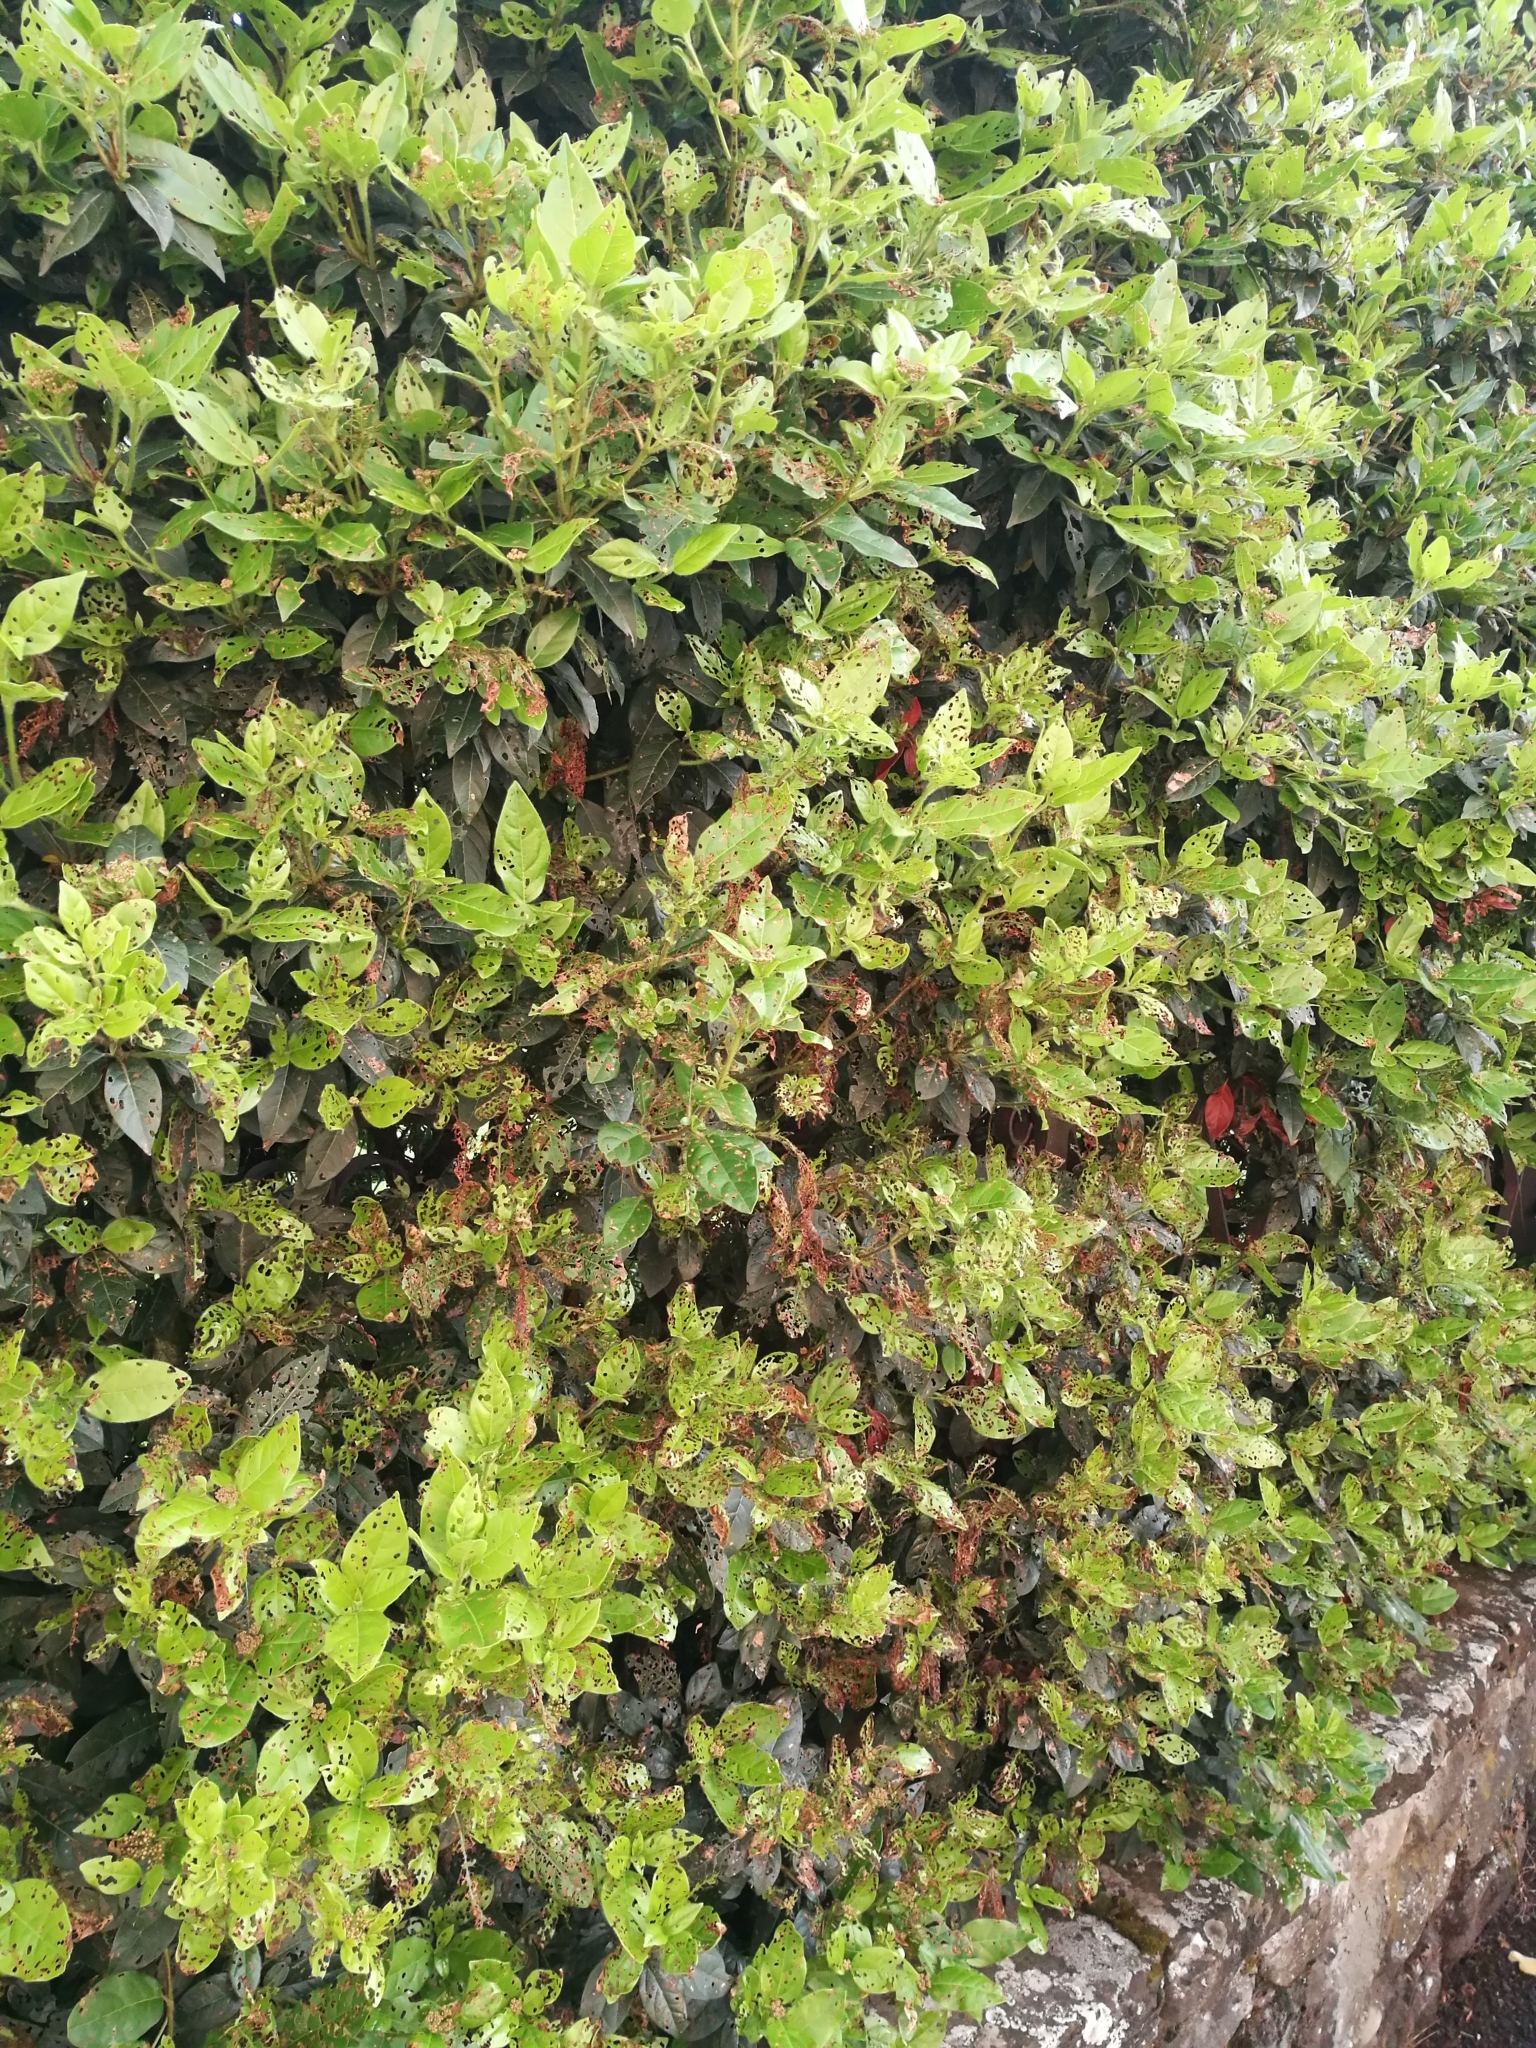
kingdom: Animalia
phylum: Arthropoda
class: Insecta
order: Coleoptera
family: Chrysomelidae
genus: Pyrrhalta
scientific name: Pyrrhalta viburni
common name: Guelder-rose leaf beetle
